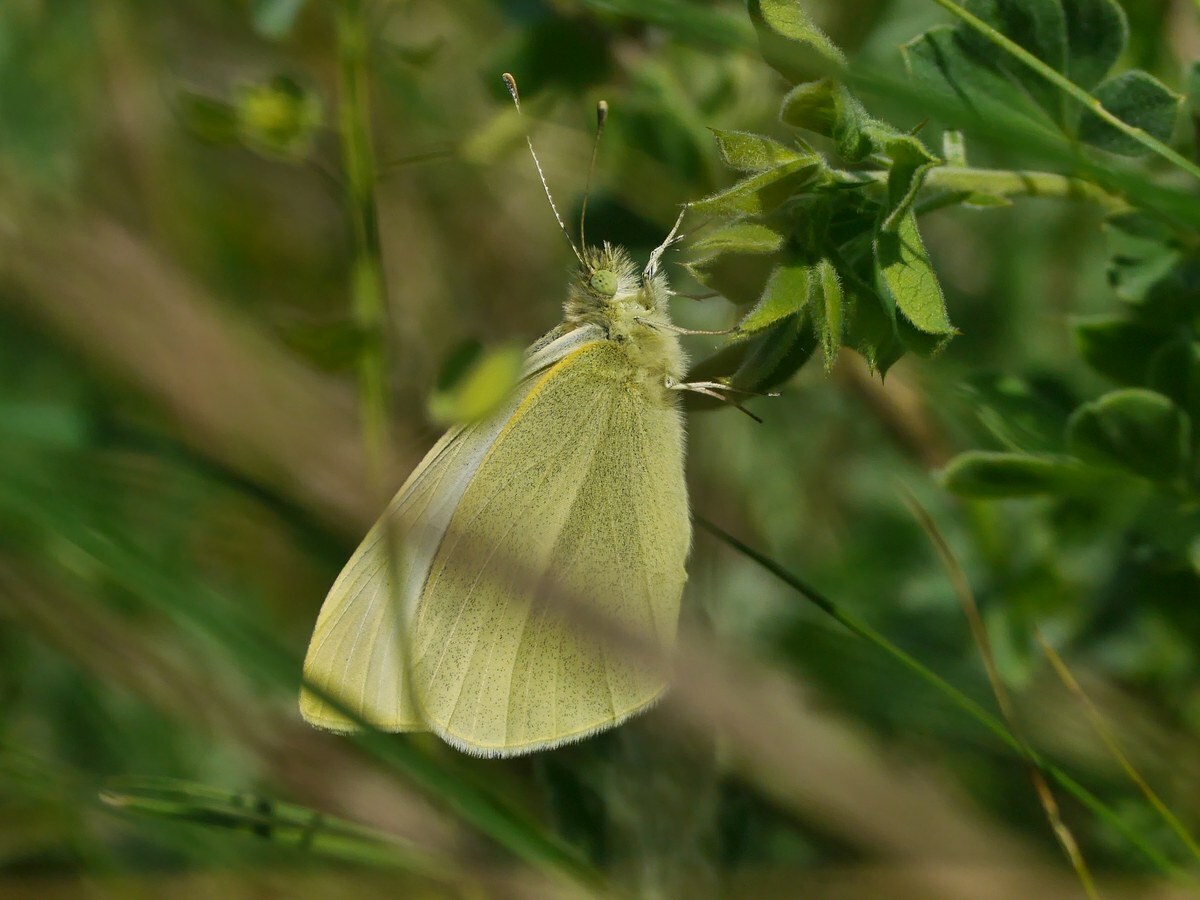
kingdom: Animalia
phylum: Arthropoda
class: Insecta
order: Lepidoptera
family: Pieridae
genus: Pieris
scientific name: Pieris rapae
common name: Small white
